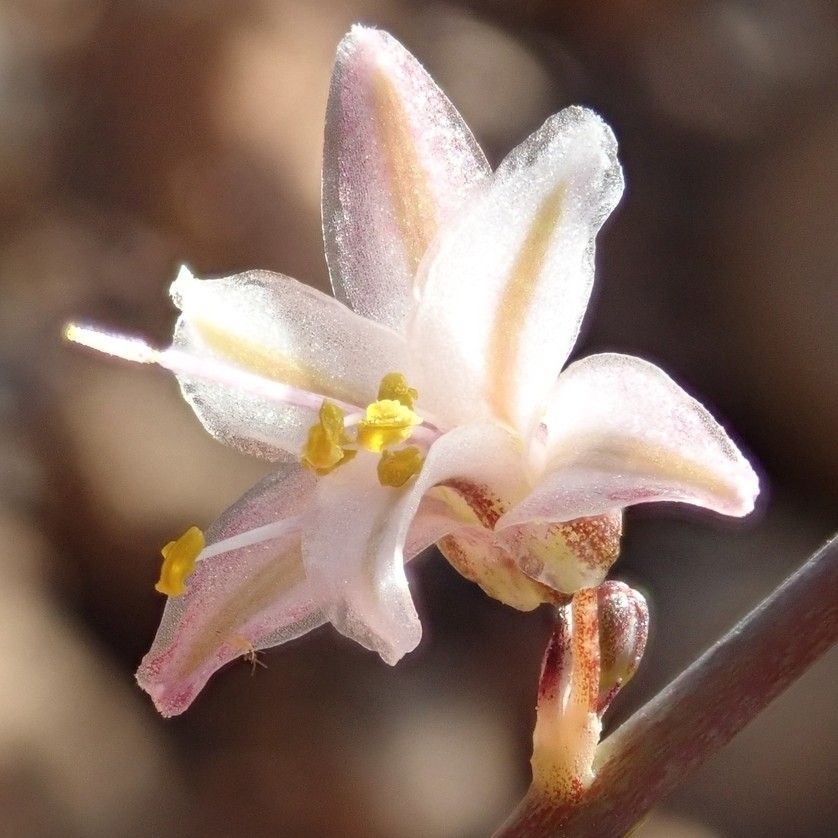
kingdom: Plantae
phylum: Tracheophyta
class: Liliopsida
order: Asparagales
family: Asparagaceae
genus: Hooveria
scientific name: Hooveria parviflora
